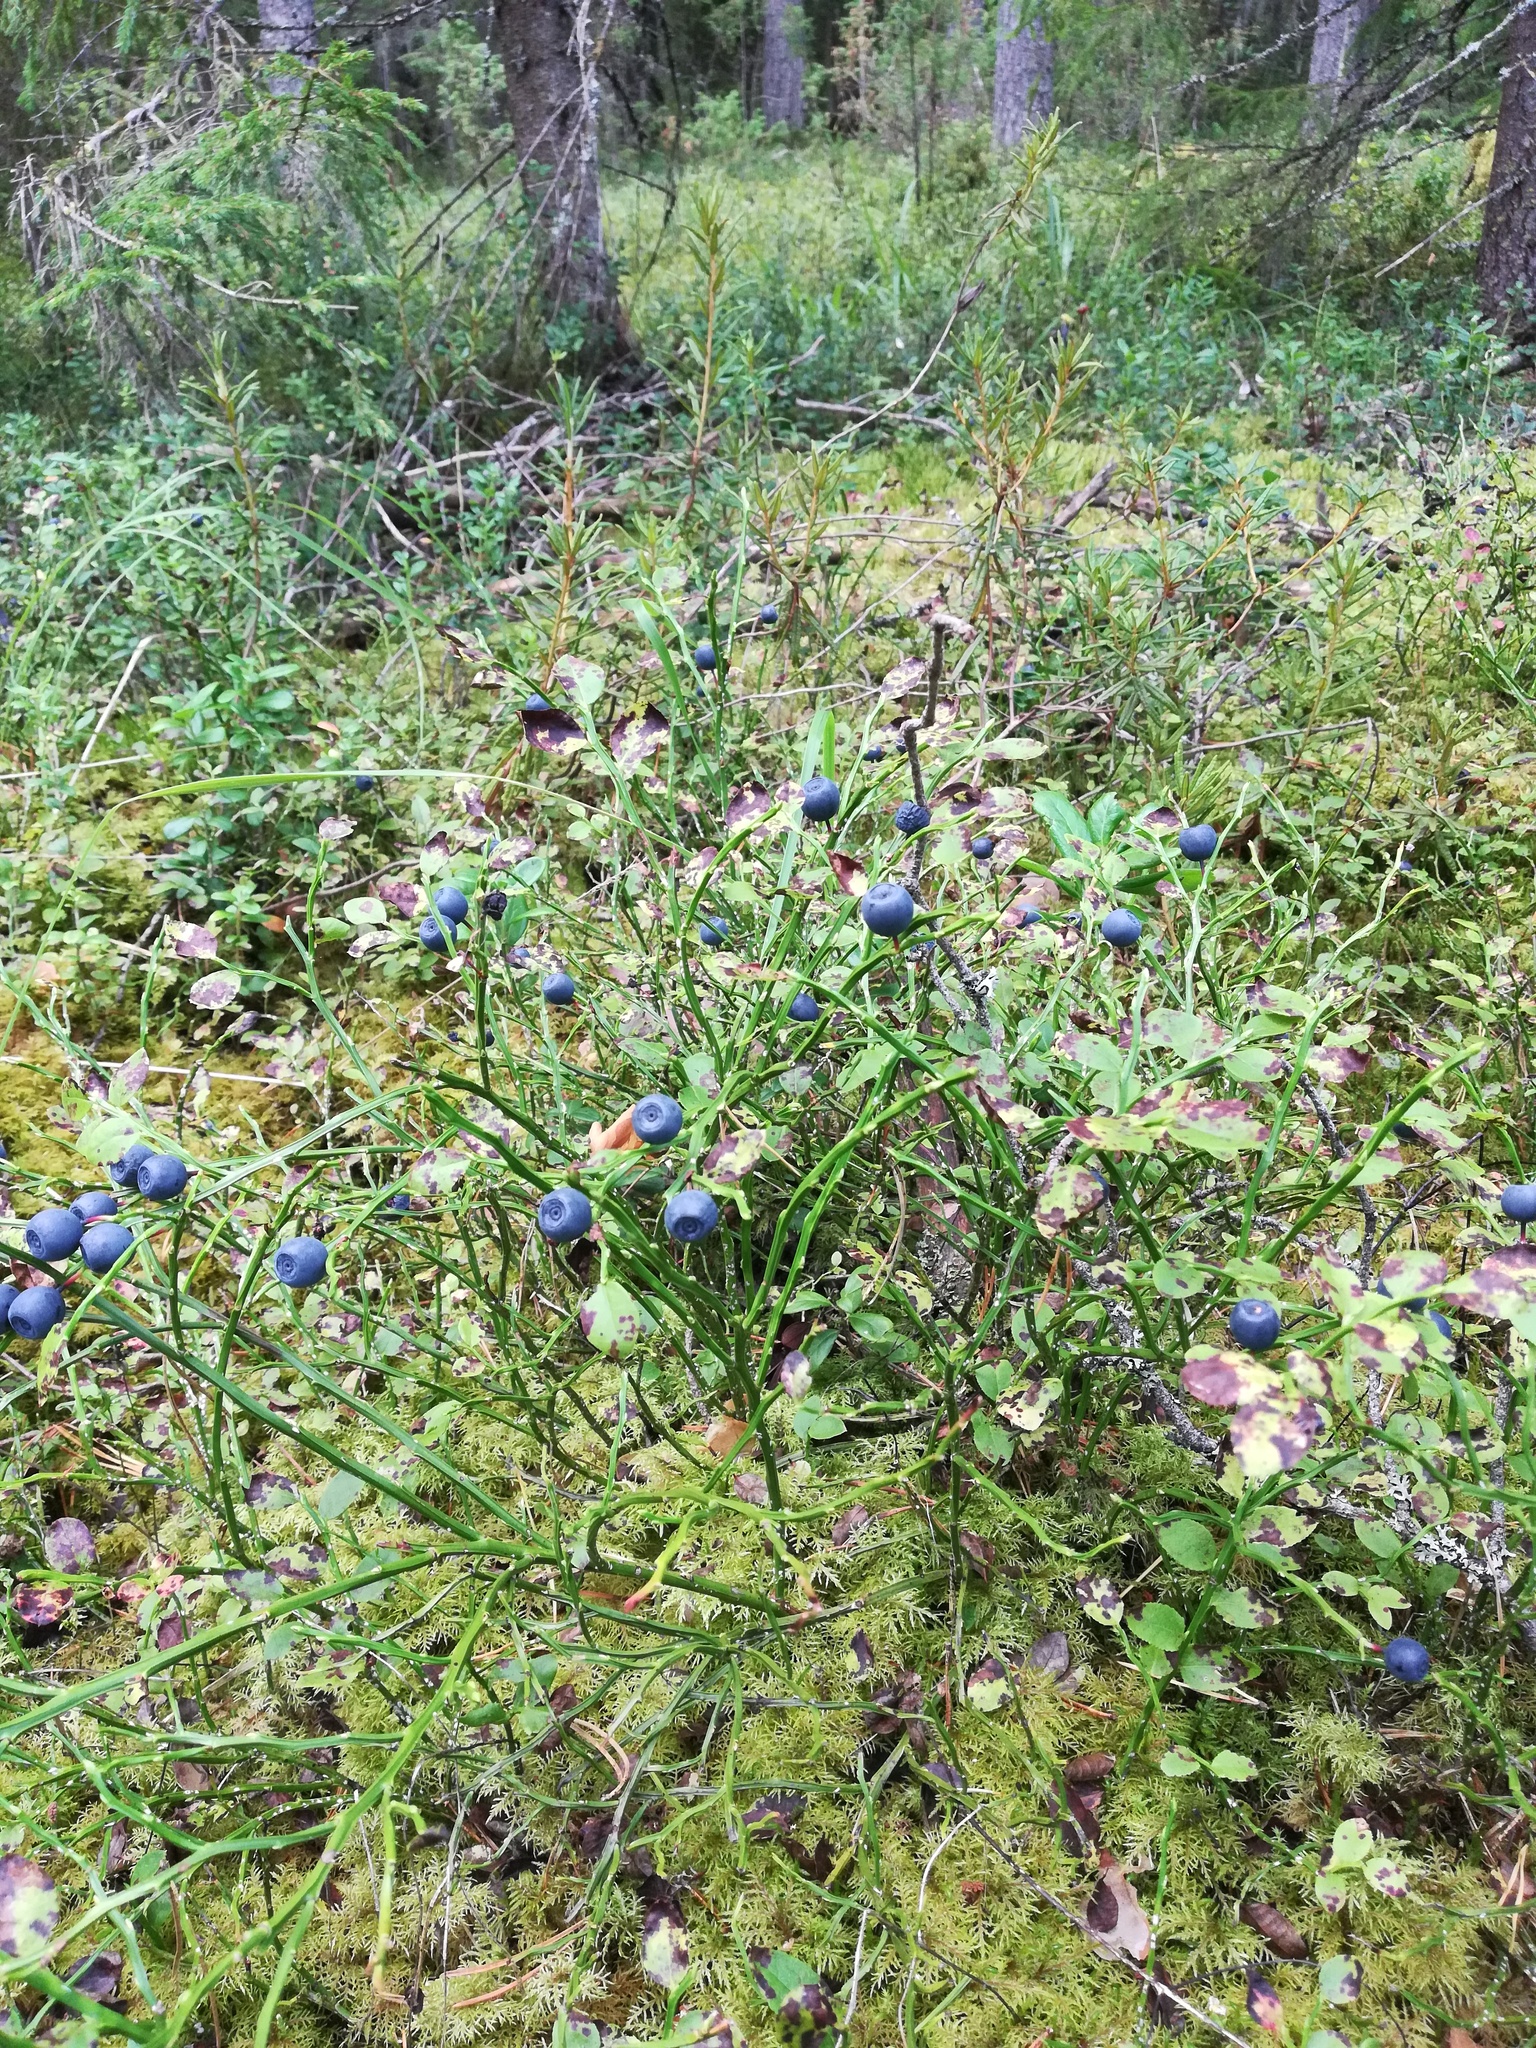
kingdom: Plantae
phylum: Tracheophyta
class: Magnoliopsida
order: Ericales
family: Ericaceae
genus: Vaccinium
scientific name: Vaccinium myrtillus
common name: Bilberry
